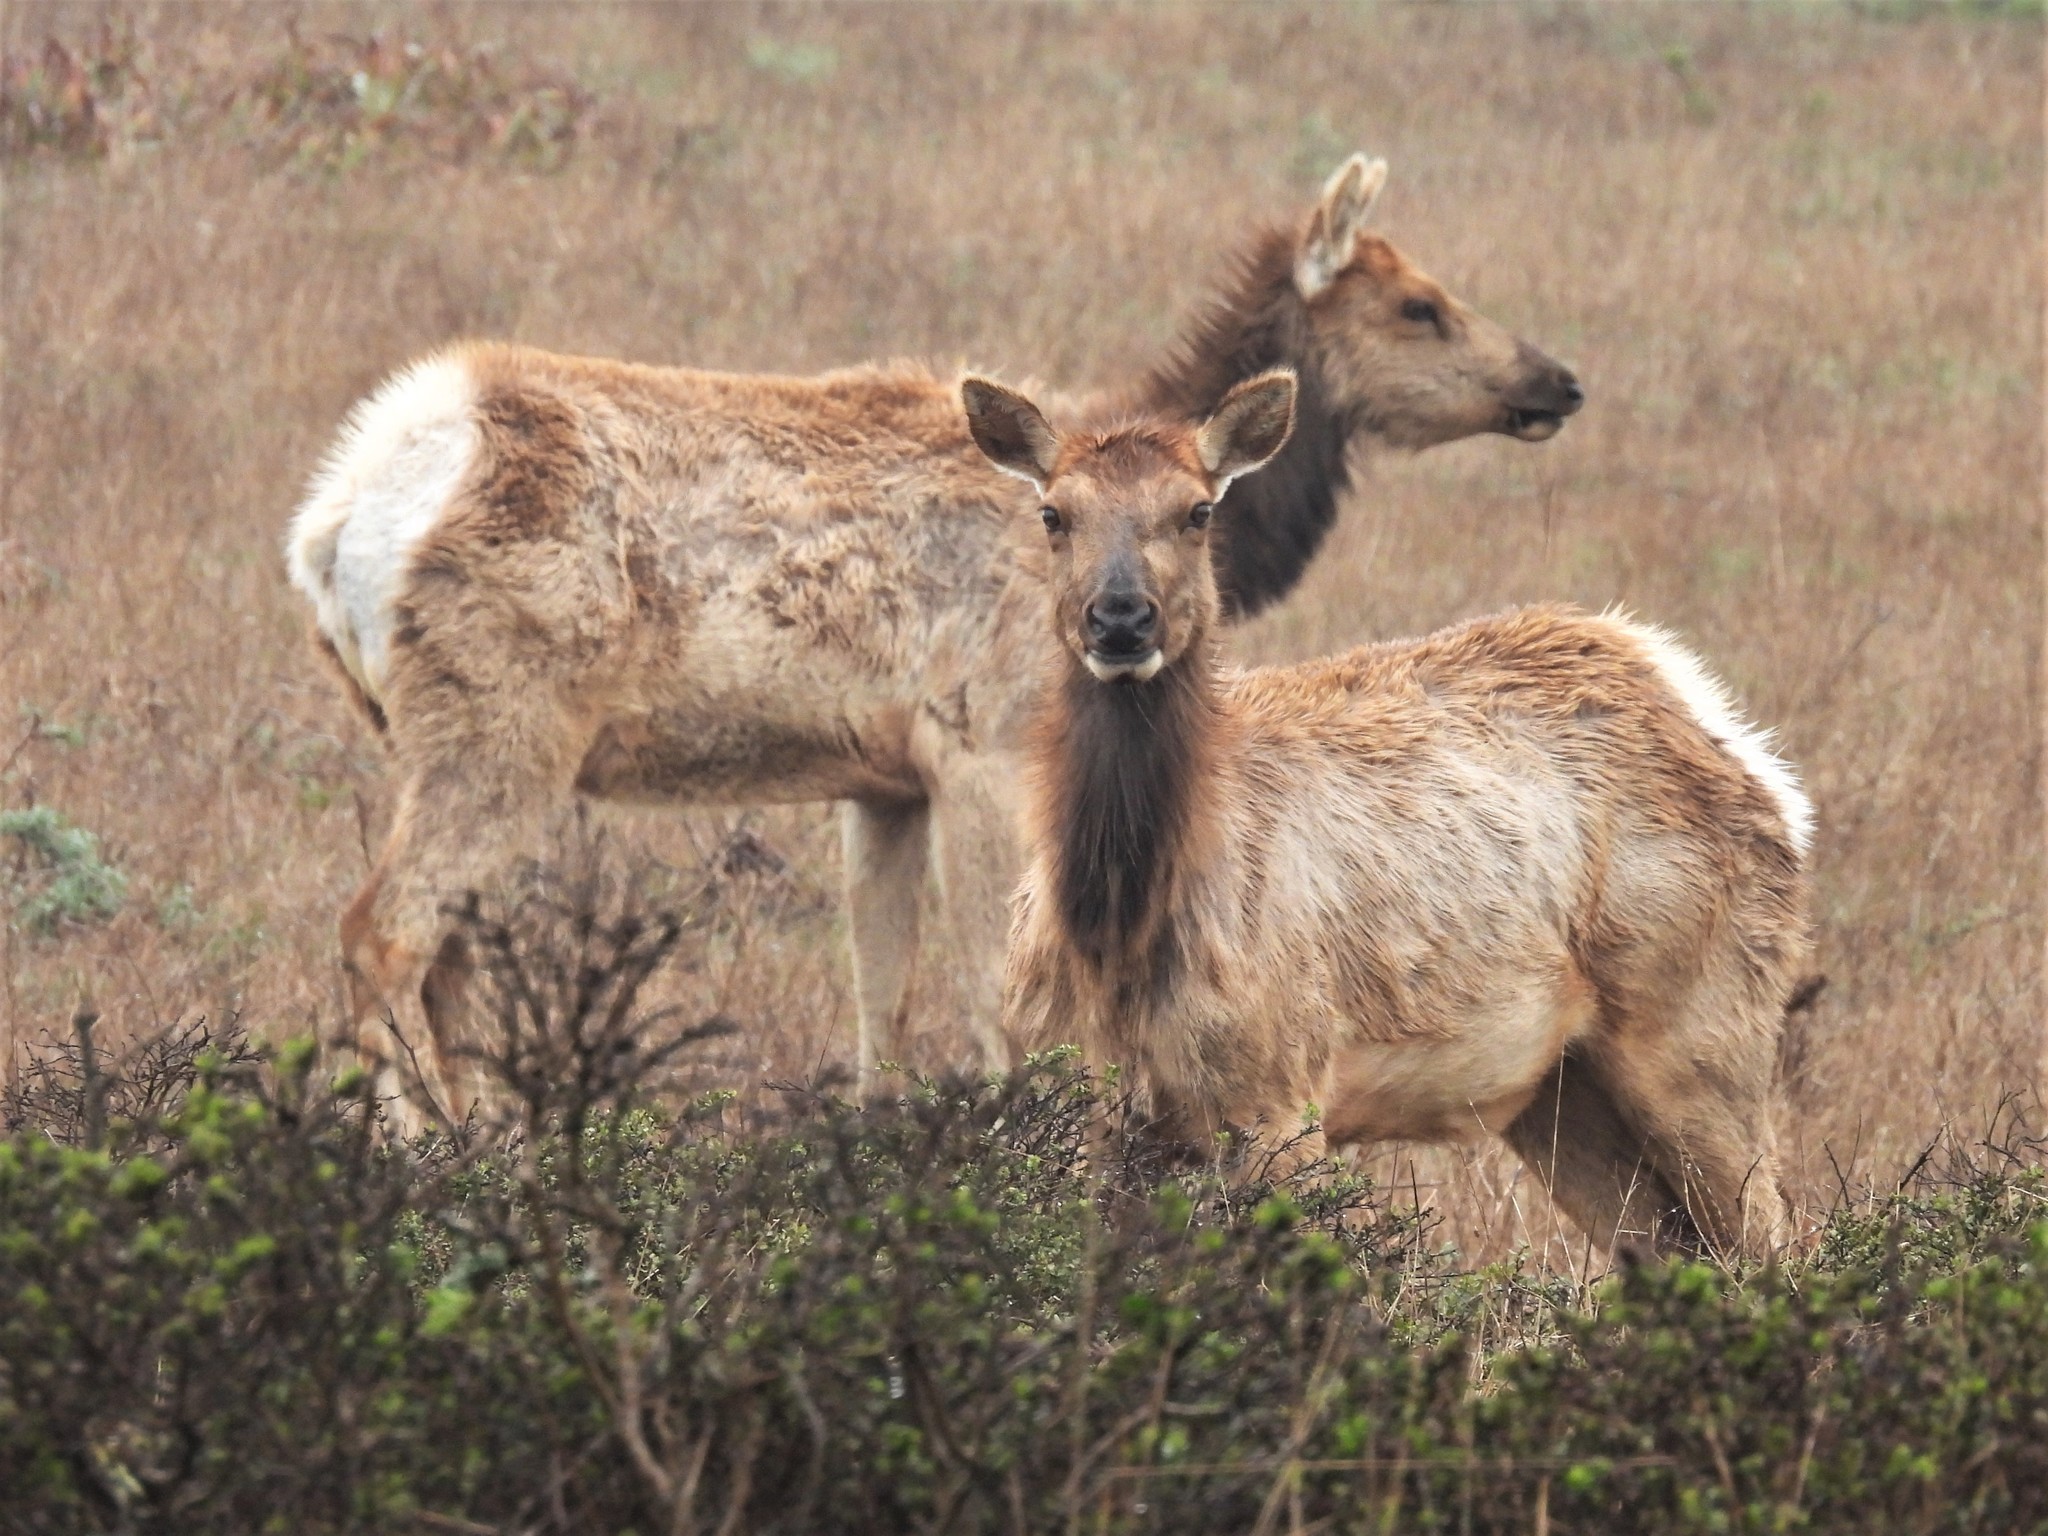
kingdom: Animalia
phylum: Chordata
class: Mammalia
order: Artiodactyla
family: Cervidae
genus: Cervus
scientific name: Cervus elaphus
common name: Red deer
